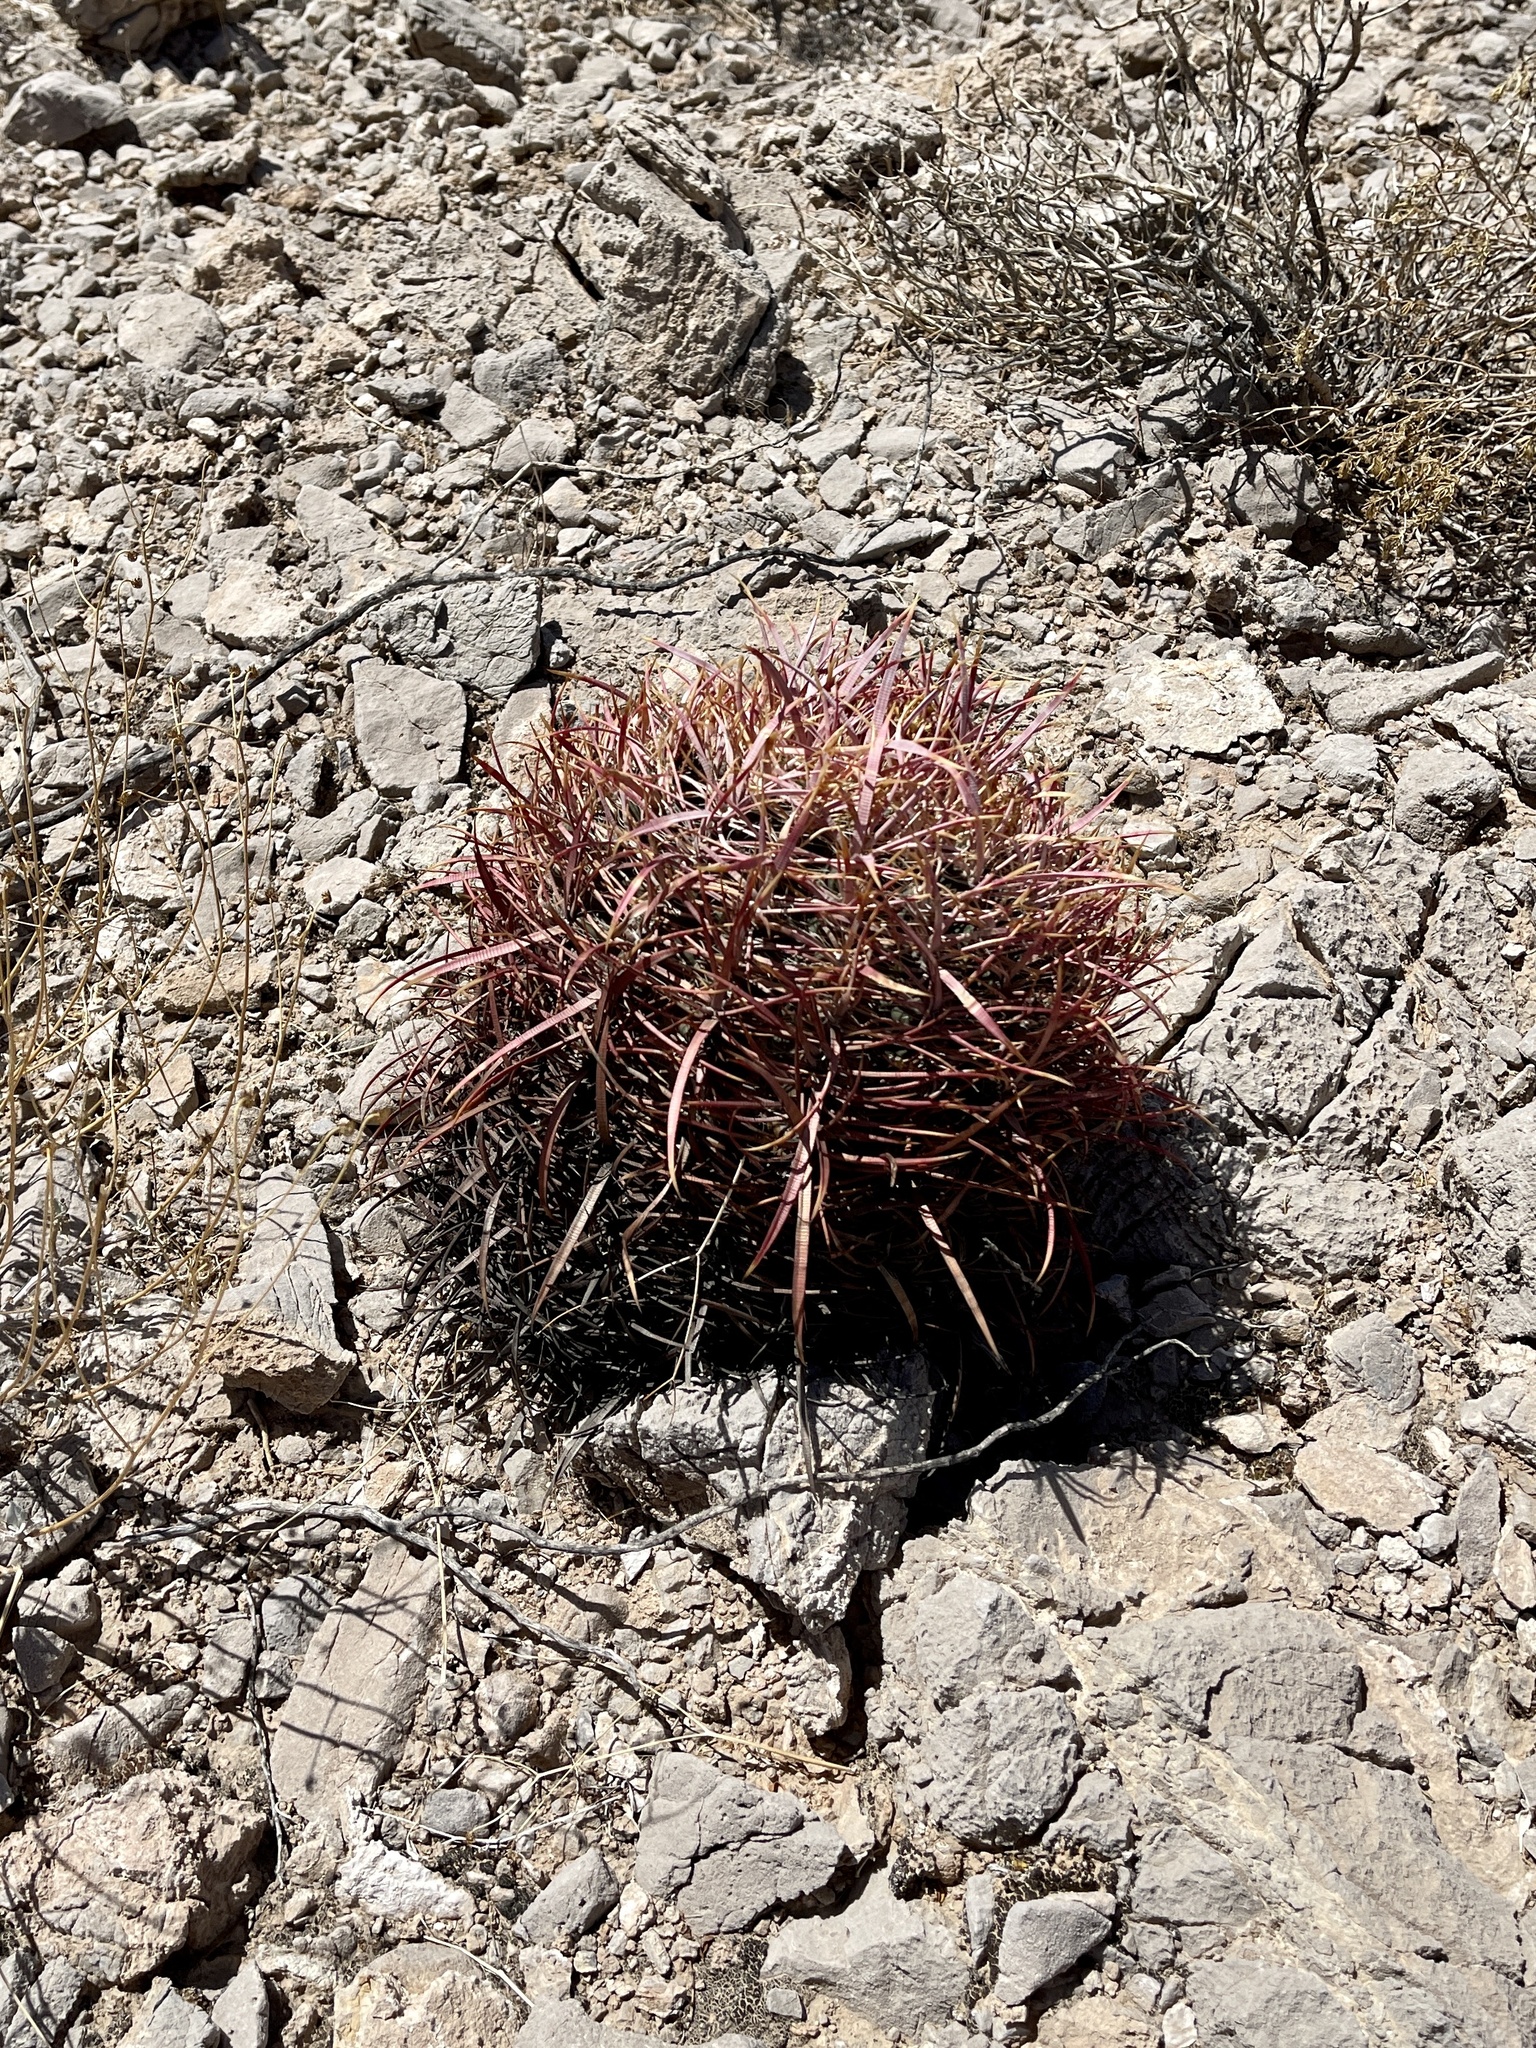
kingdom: Plantae
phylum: Tracheophyta
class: Magnoliopsida
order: Caryophyllales
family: Cactaceae
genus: Ferocactus
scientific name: Ferocactus cylindraceus
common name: California barrel cactus
